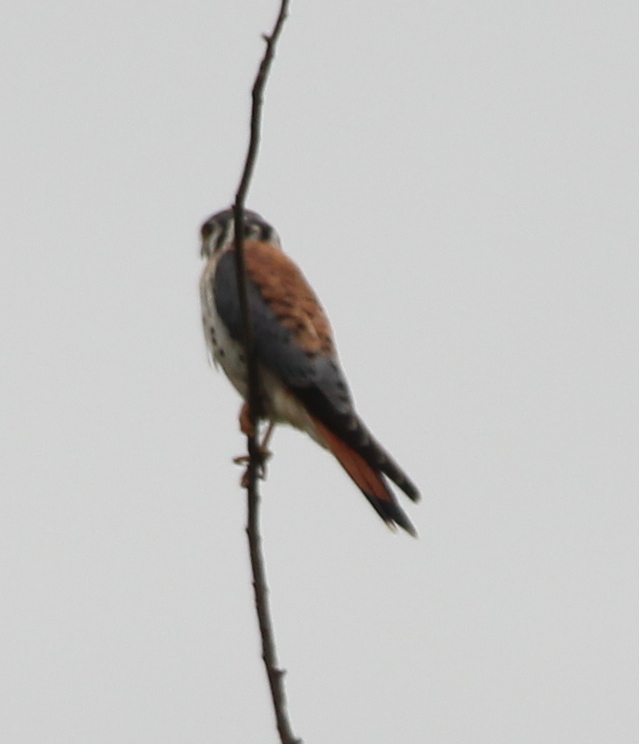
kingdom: Animalia
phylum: Chordata
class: Aves
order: Falconiformes
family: Falconidae
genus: Falco
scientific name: Falco sparverius
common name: American kestrel
